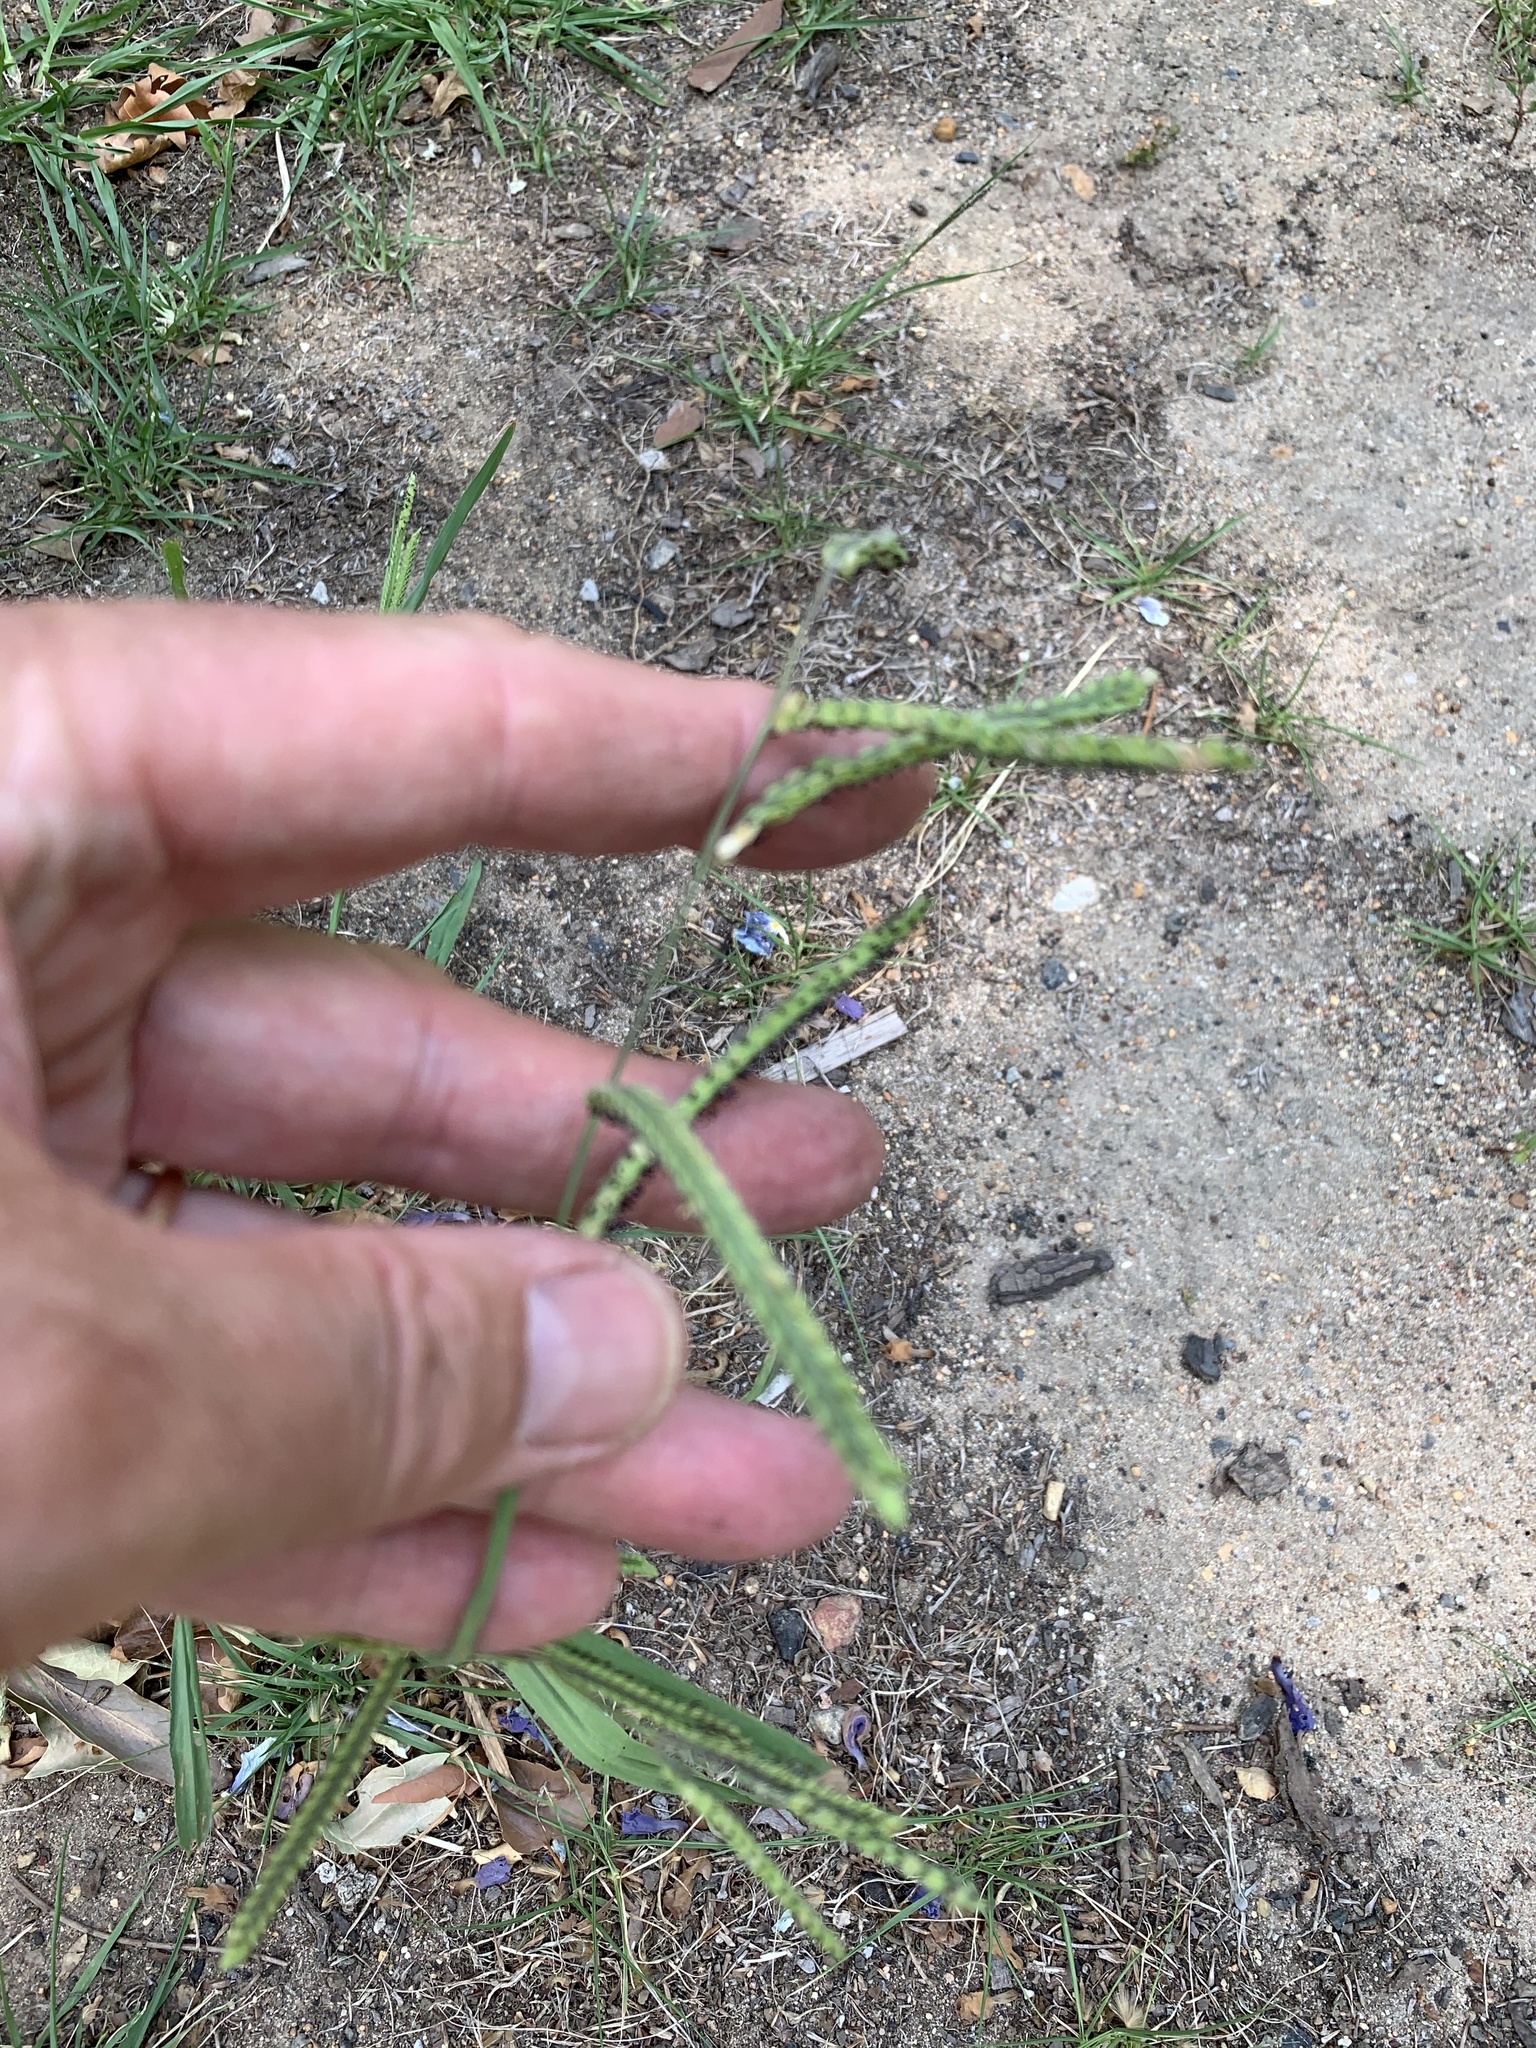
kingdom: Plantae
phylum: Tracheophyta
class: Liliopsida
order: Poales
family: Poaceae
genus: Paspalum
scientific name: Paspalum dilatatum
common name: Dallisgrass
